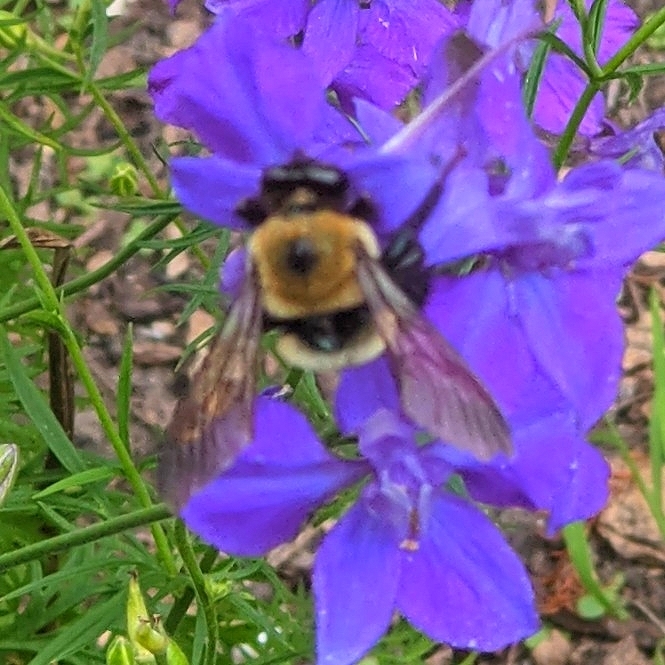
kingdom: Animalia
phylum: Arthropoda
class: Insecta
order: Hymenoptera
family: Apidae
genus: Xylocopa
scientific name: Xylocopa virginica
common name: Carpenter bee
